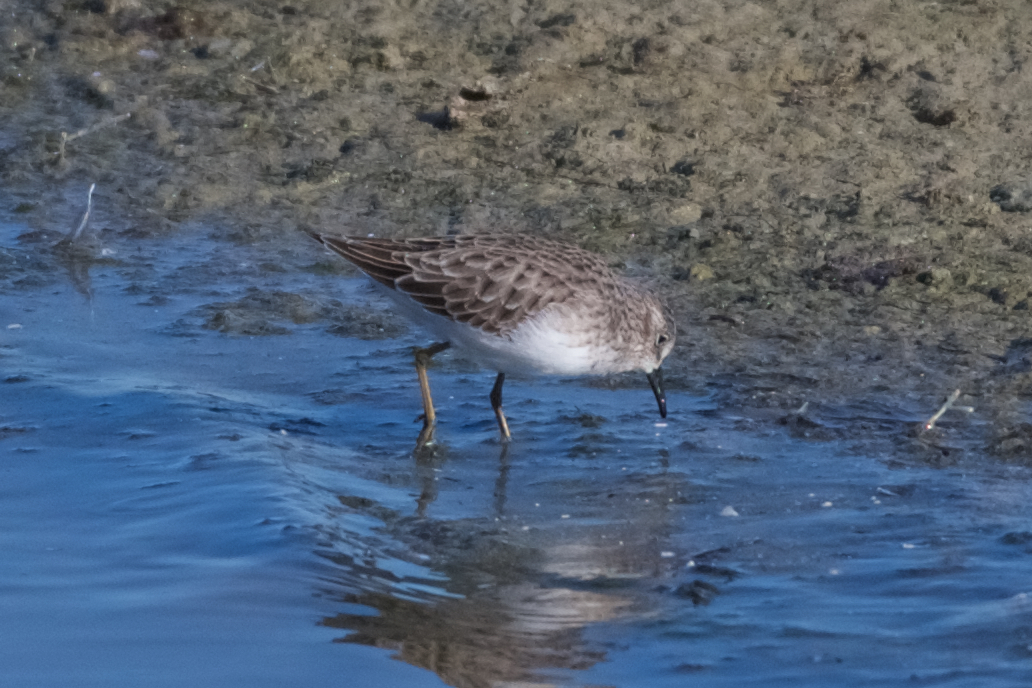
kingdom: Animalia
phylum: Chordata
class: Aves
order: Charadriiformes
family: Scolopacidae
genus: Calidris
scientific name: Calidris minutilla
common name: Least sandpiper
